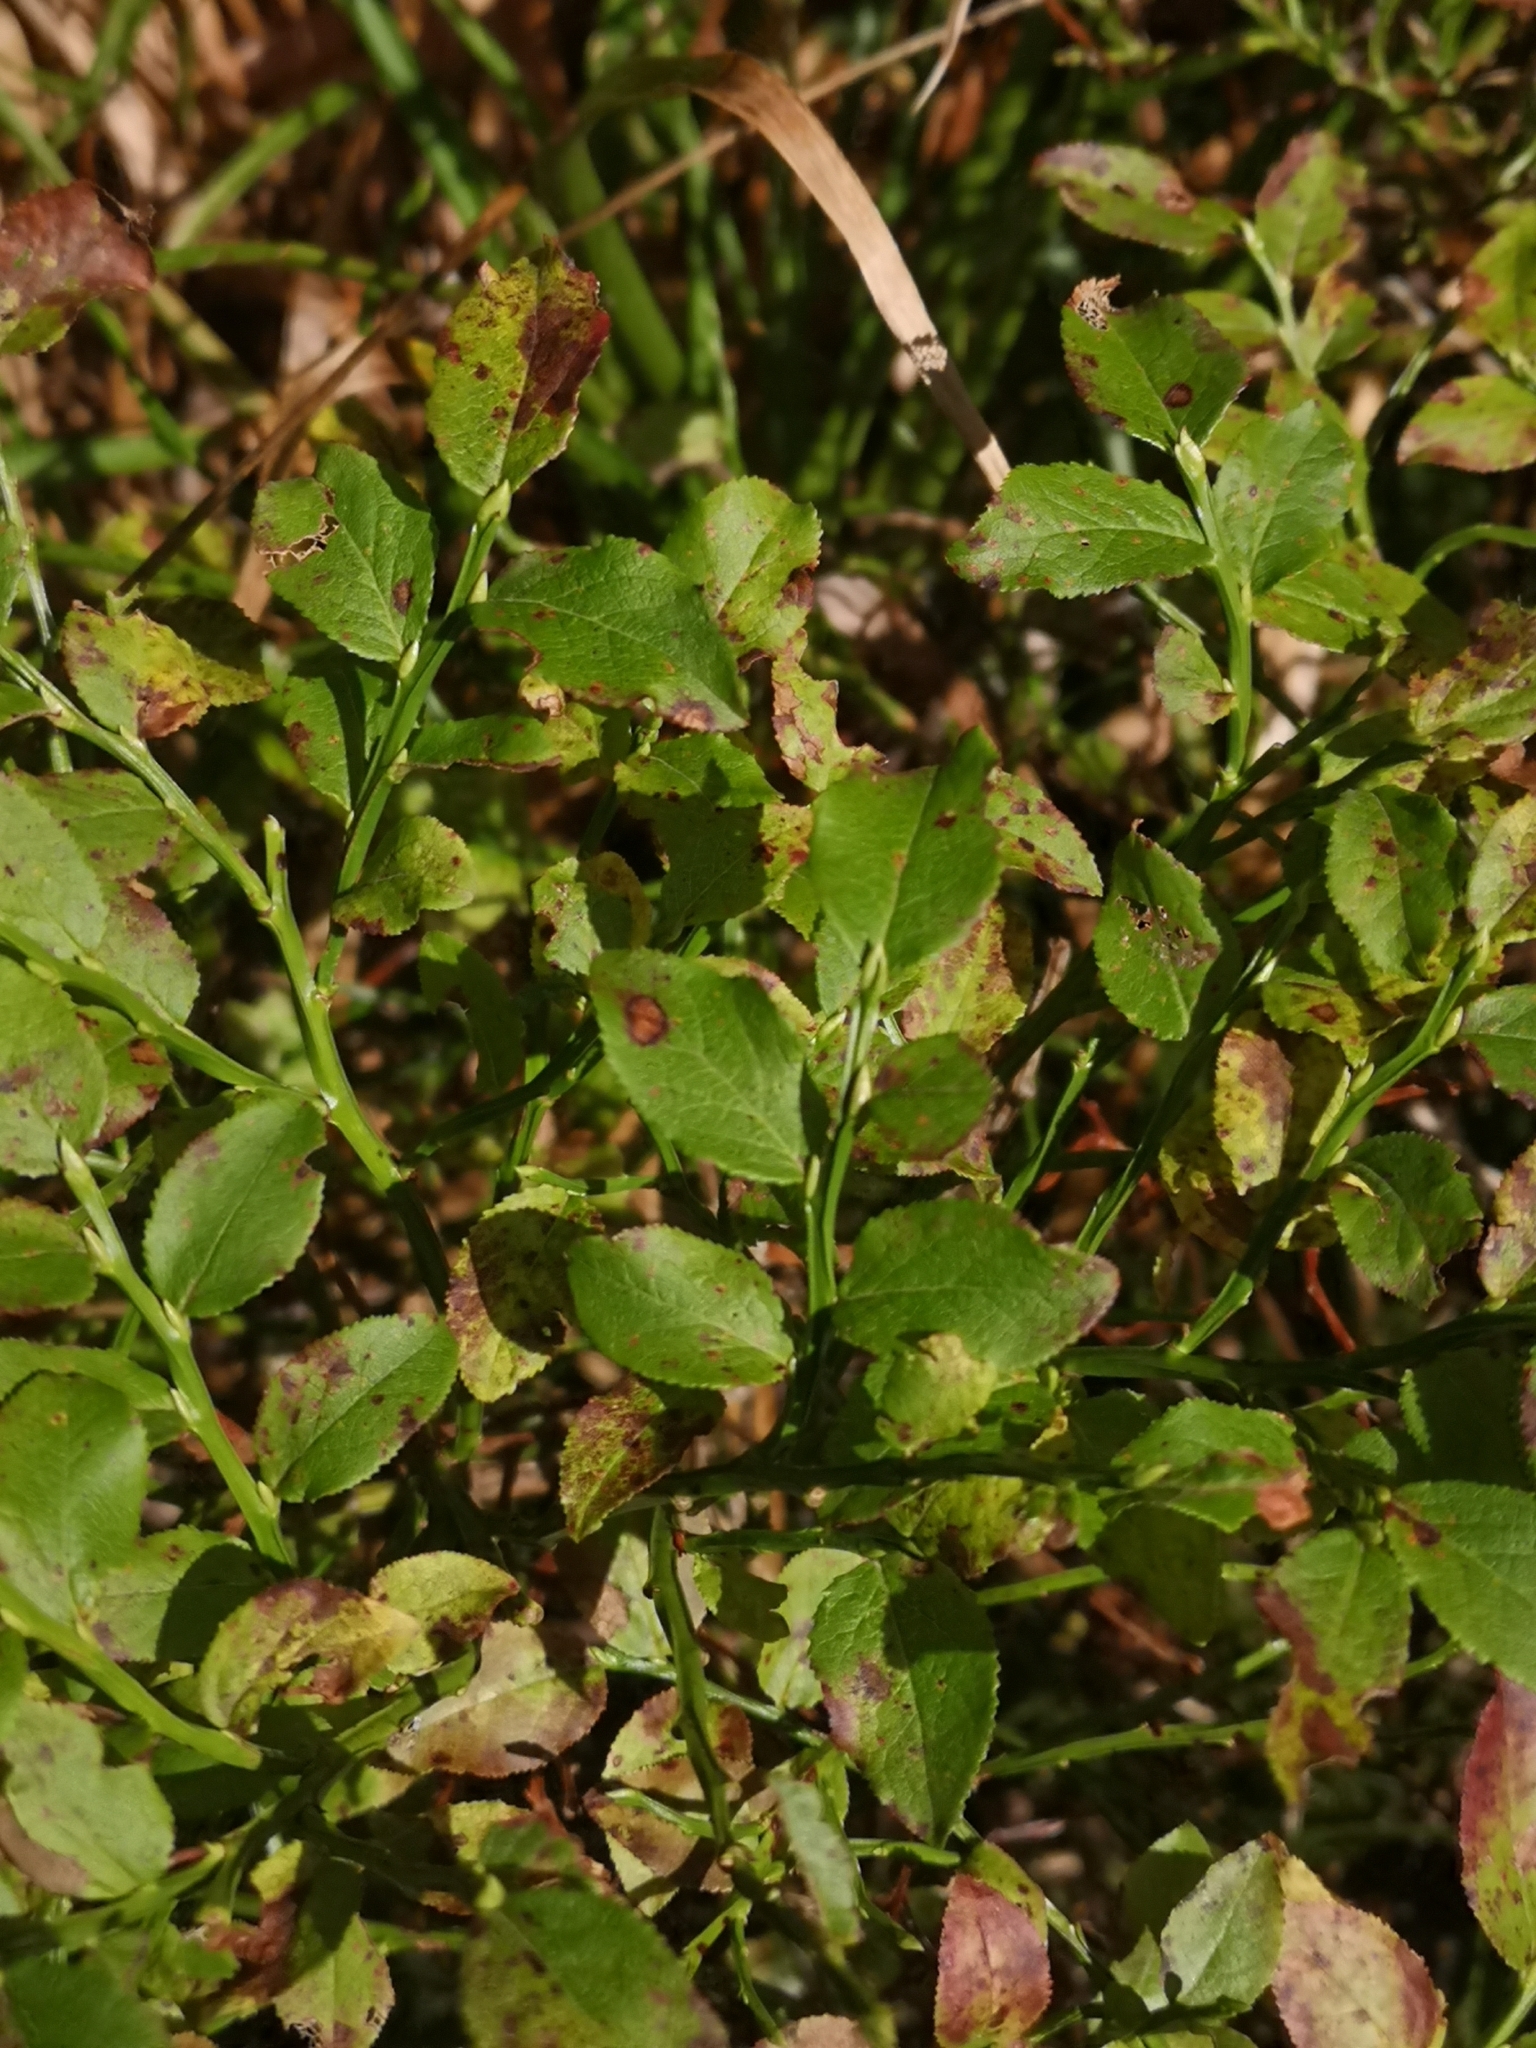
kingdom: Plantae
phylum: Tracheophyta
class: Magnoliopsida
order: Ericales
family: Ericaceae
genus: Vaccinium
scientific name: Vaccinium myrtillus
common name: Bilberry
